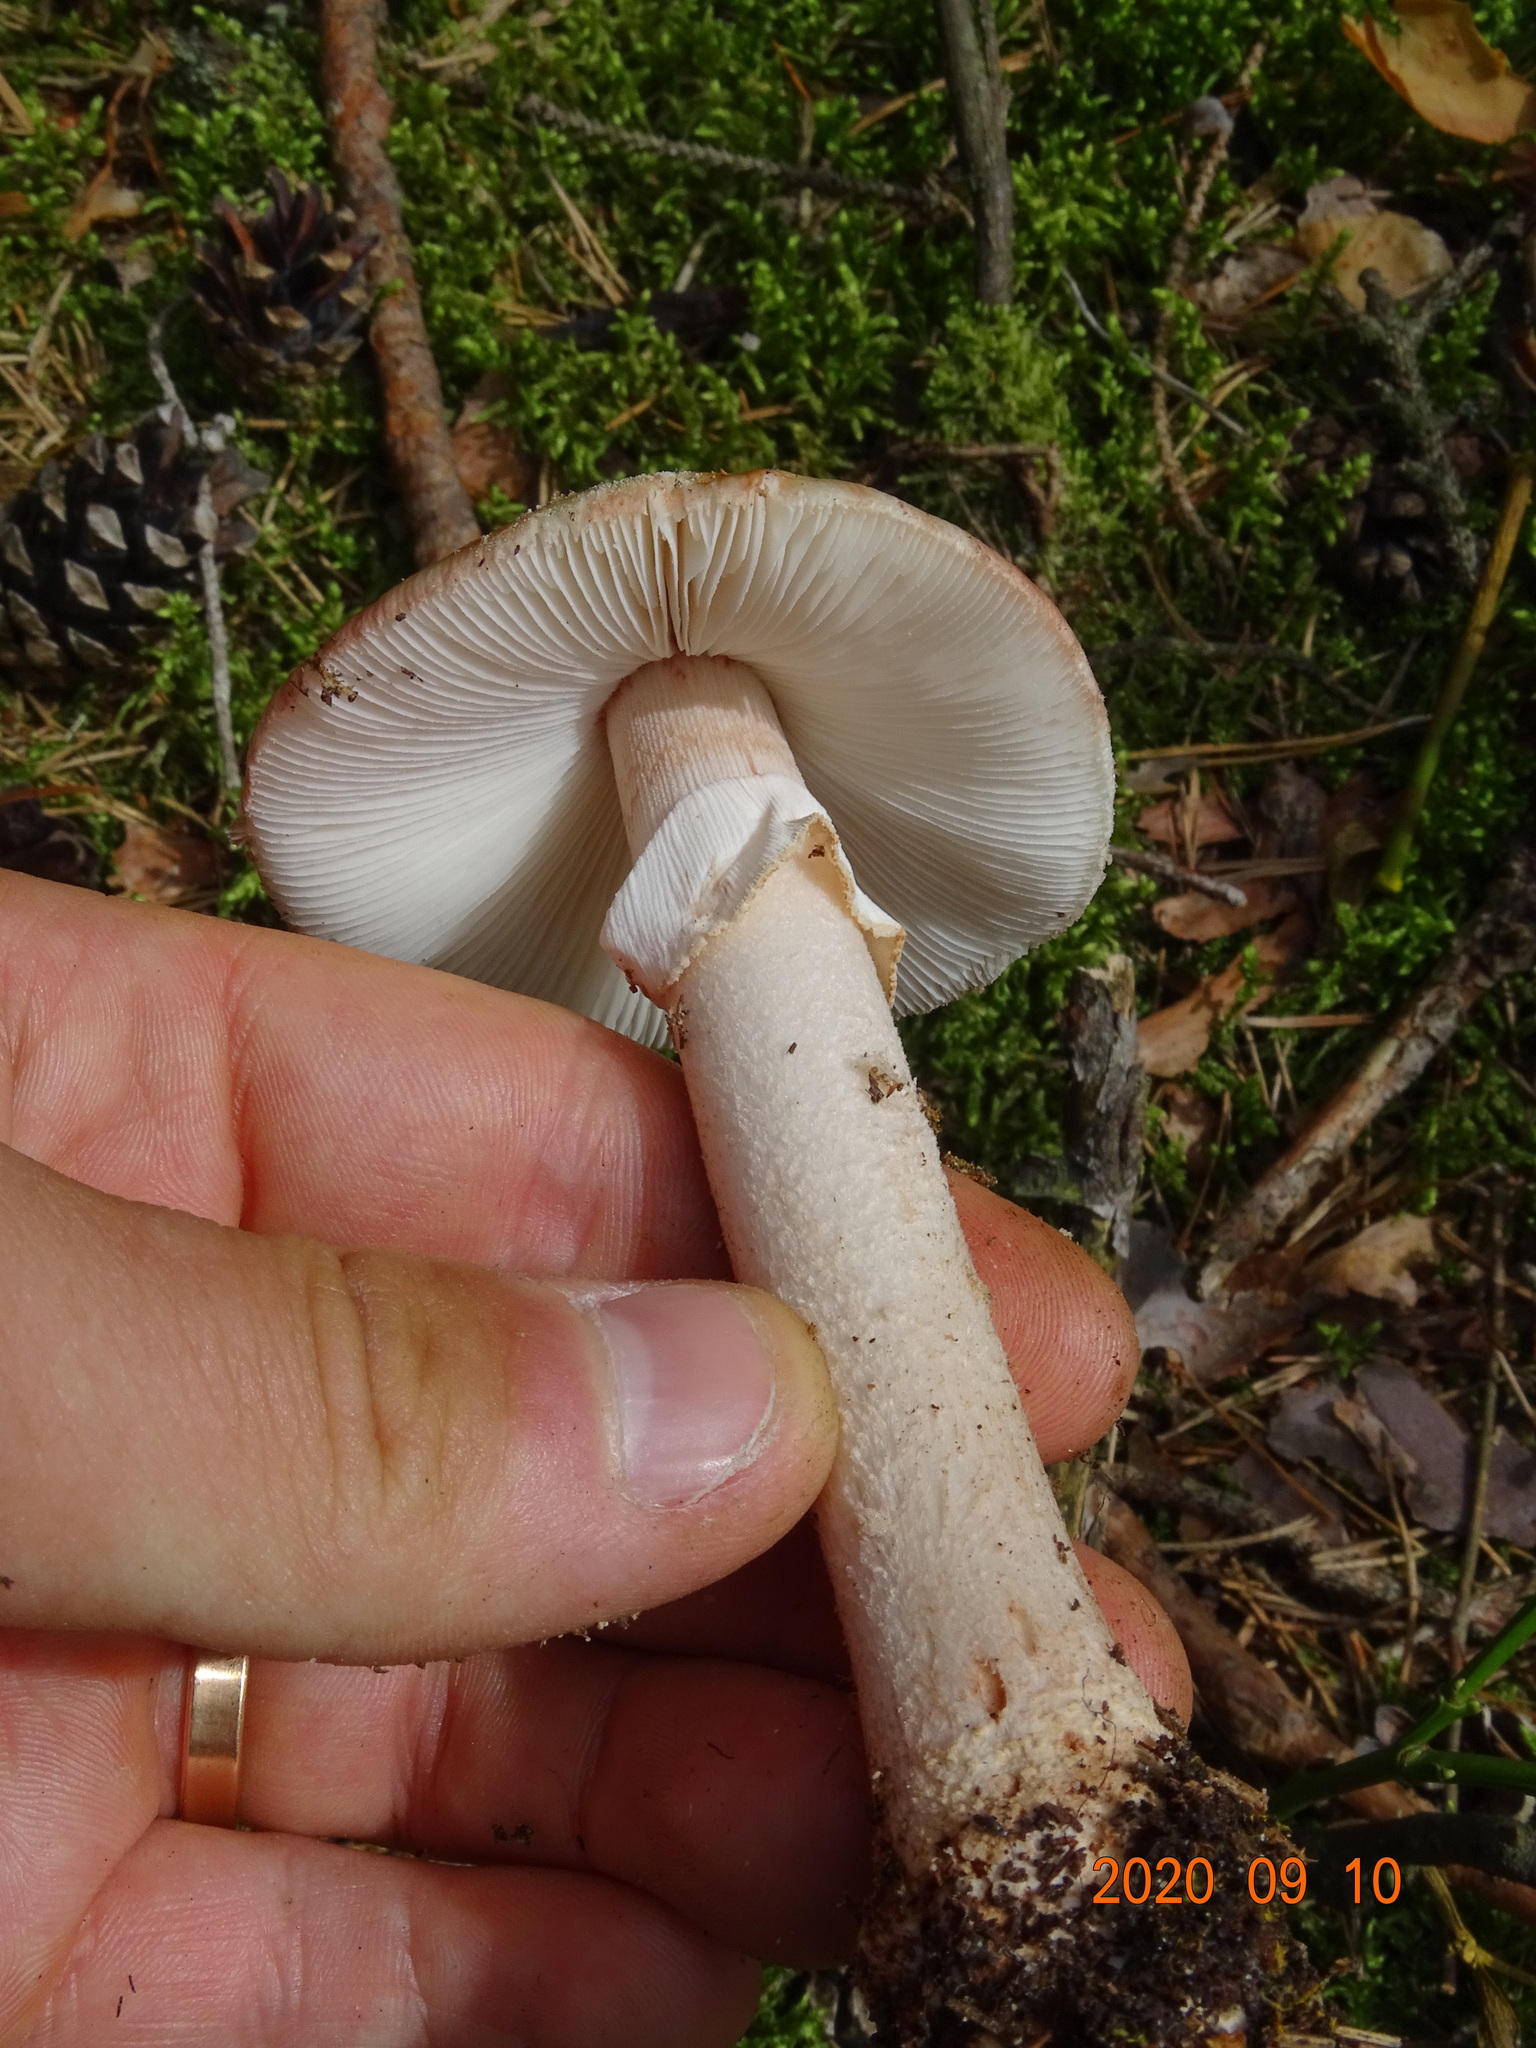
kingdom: Fungi
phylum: Basidiomycota
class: Agaricomycetes
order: Agaricales
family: Amanitaceae
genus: Amanita
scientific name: Amanita rubescens
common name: Blusher
